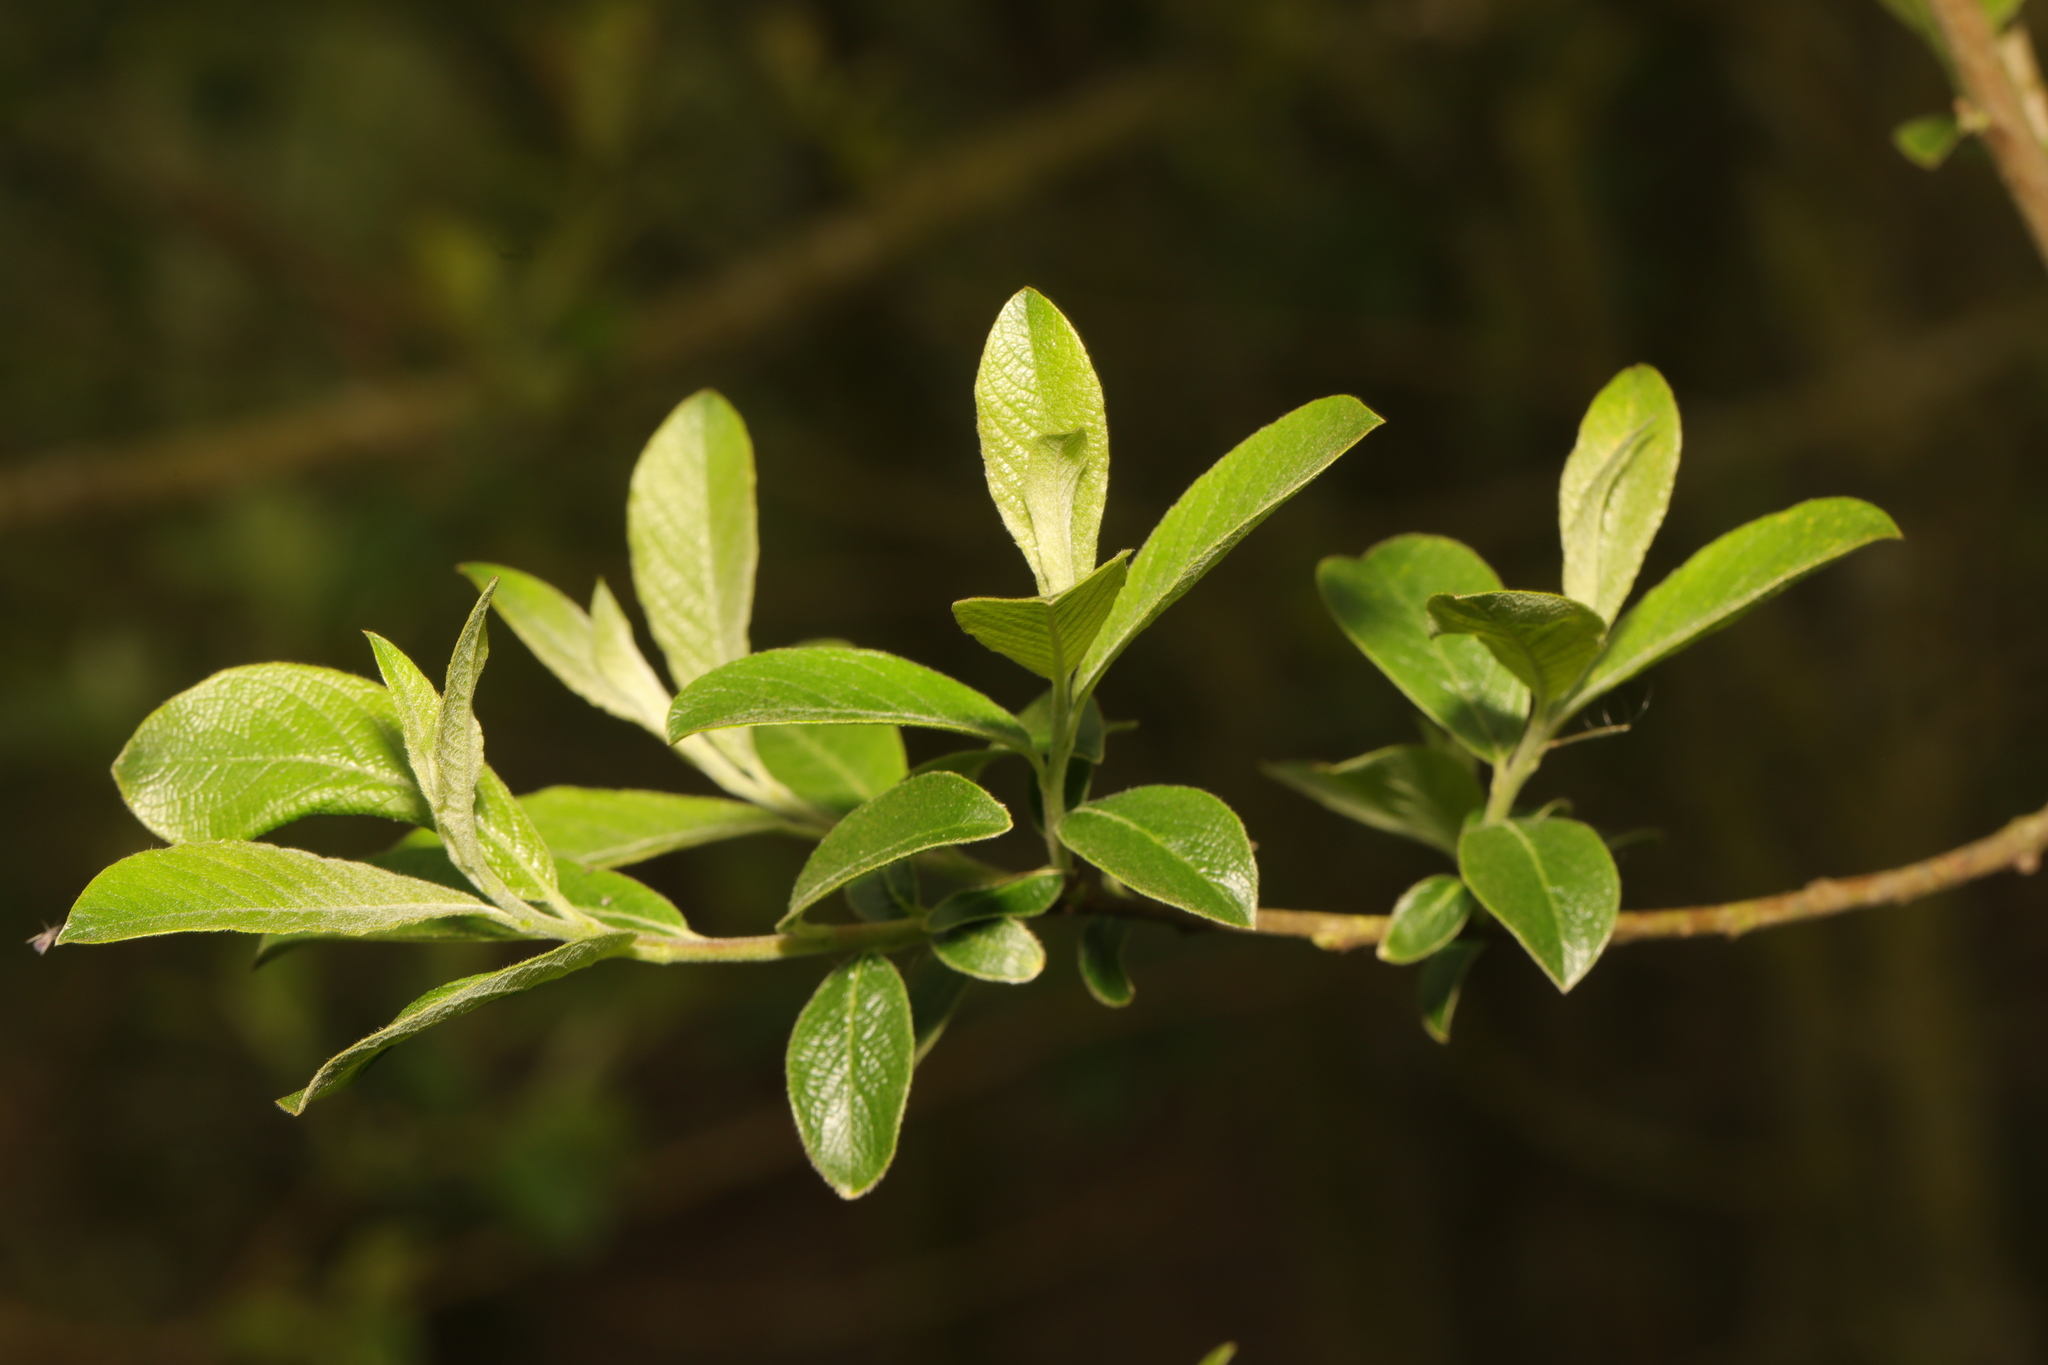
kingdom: Plantae
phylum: Tracheophyta
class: Magnoliopsida
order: Malpighiales
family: Salicaceae
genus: Salix
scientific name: Salix atrocinerea
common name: Rusty willow
